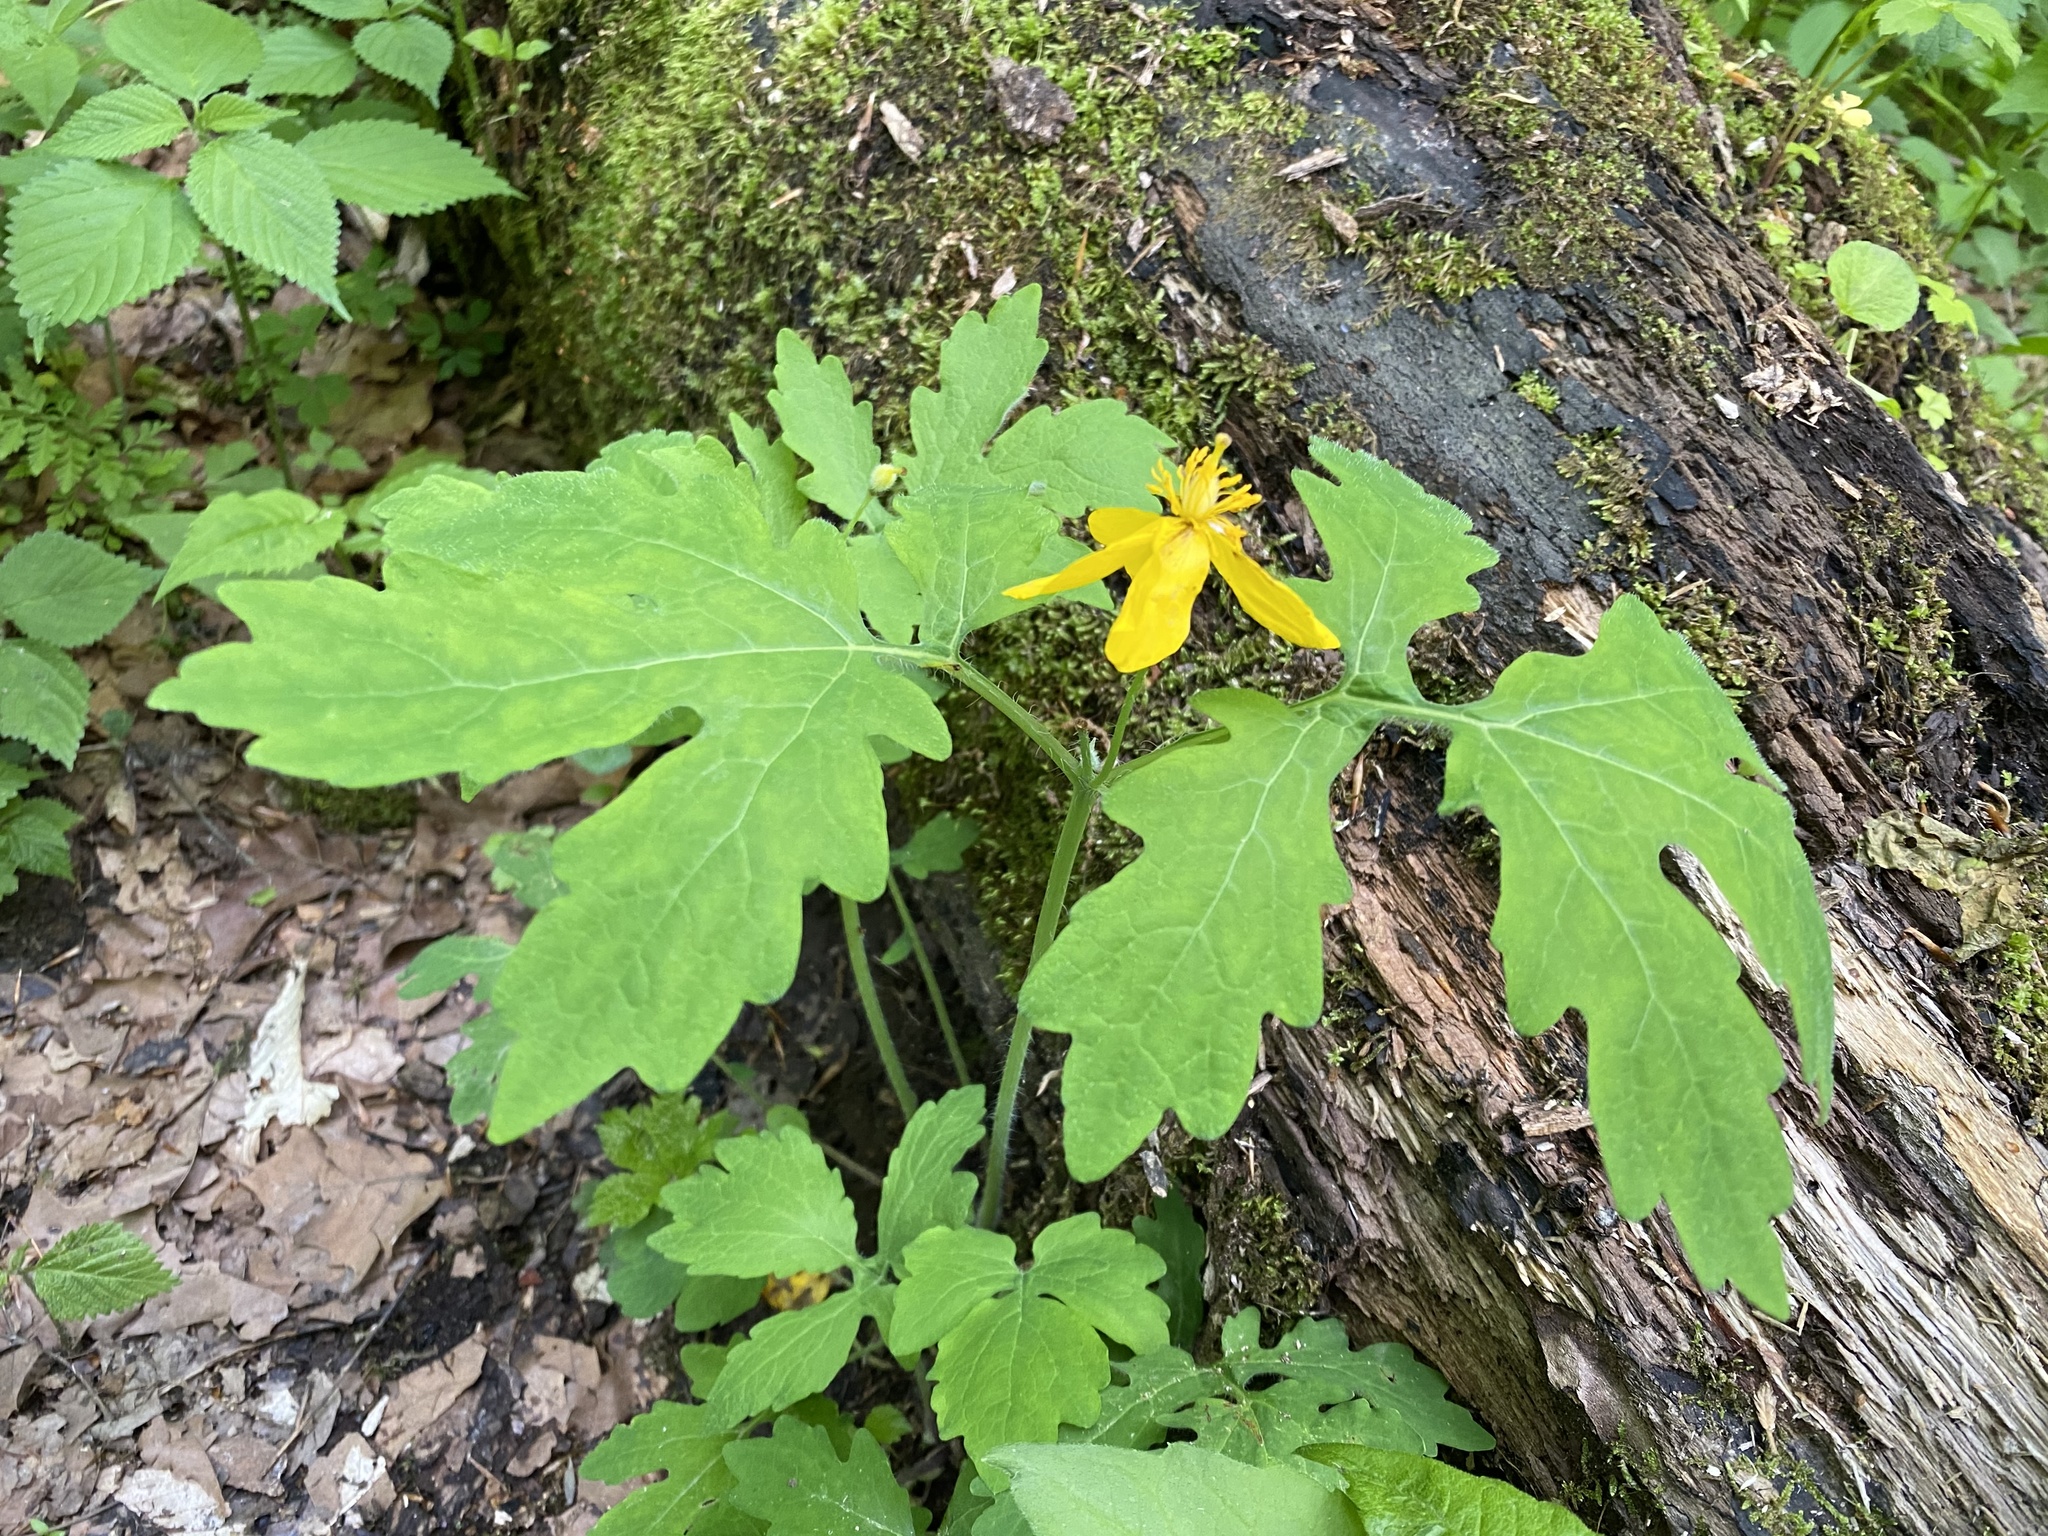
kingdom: Plantae
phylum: Tracheophyta
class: Magnoliopsida
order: Ranunculales
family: Papaveraceae
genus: Stylophorum
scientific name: Stylophorum diphyllum
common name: Celandine poppy
